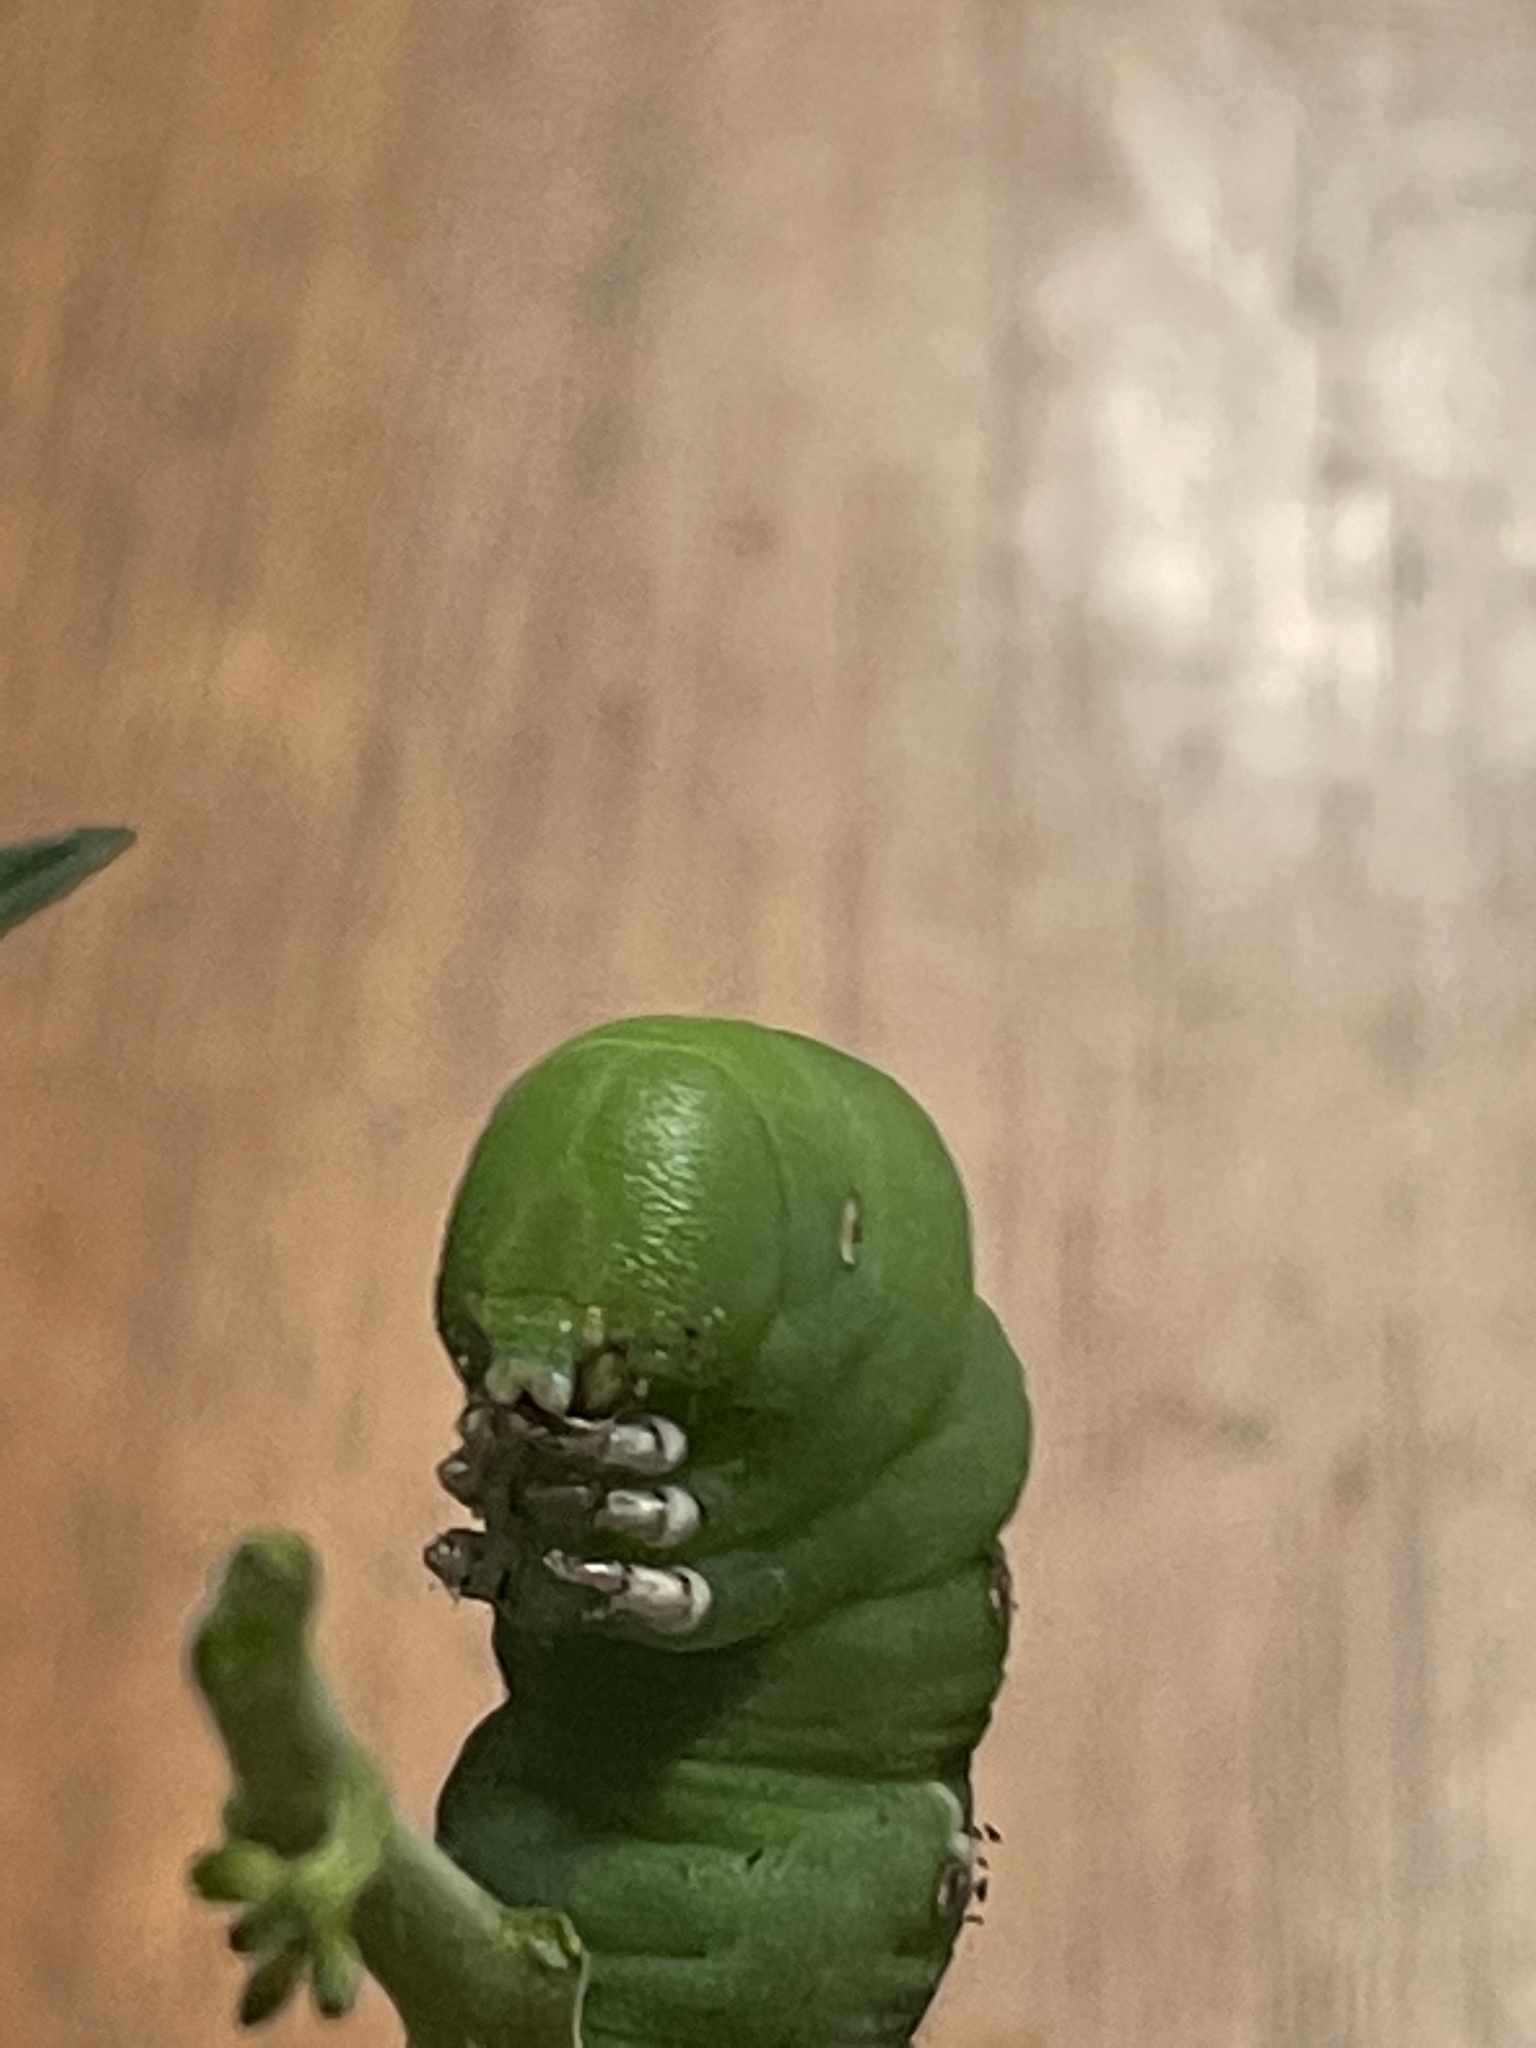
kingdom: Animalia
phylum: Arthropoda
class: Insecta
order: Lepidoptera
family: Sphingidae
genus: Manduca
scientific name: Manduca sexta
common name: Carolina sphinx
